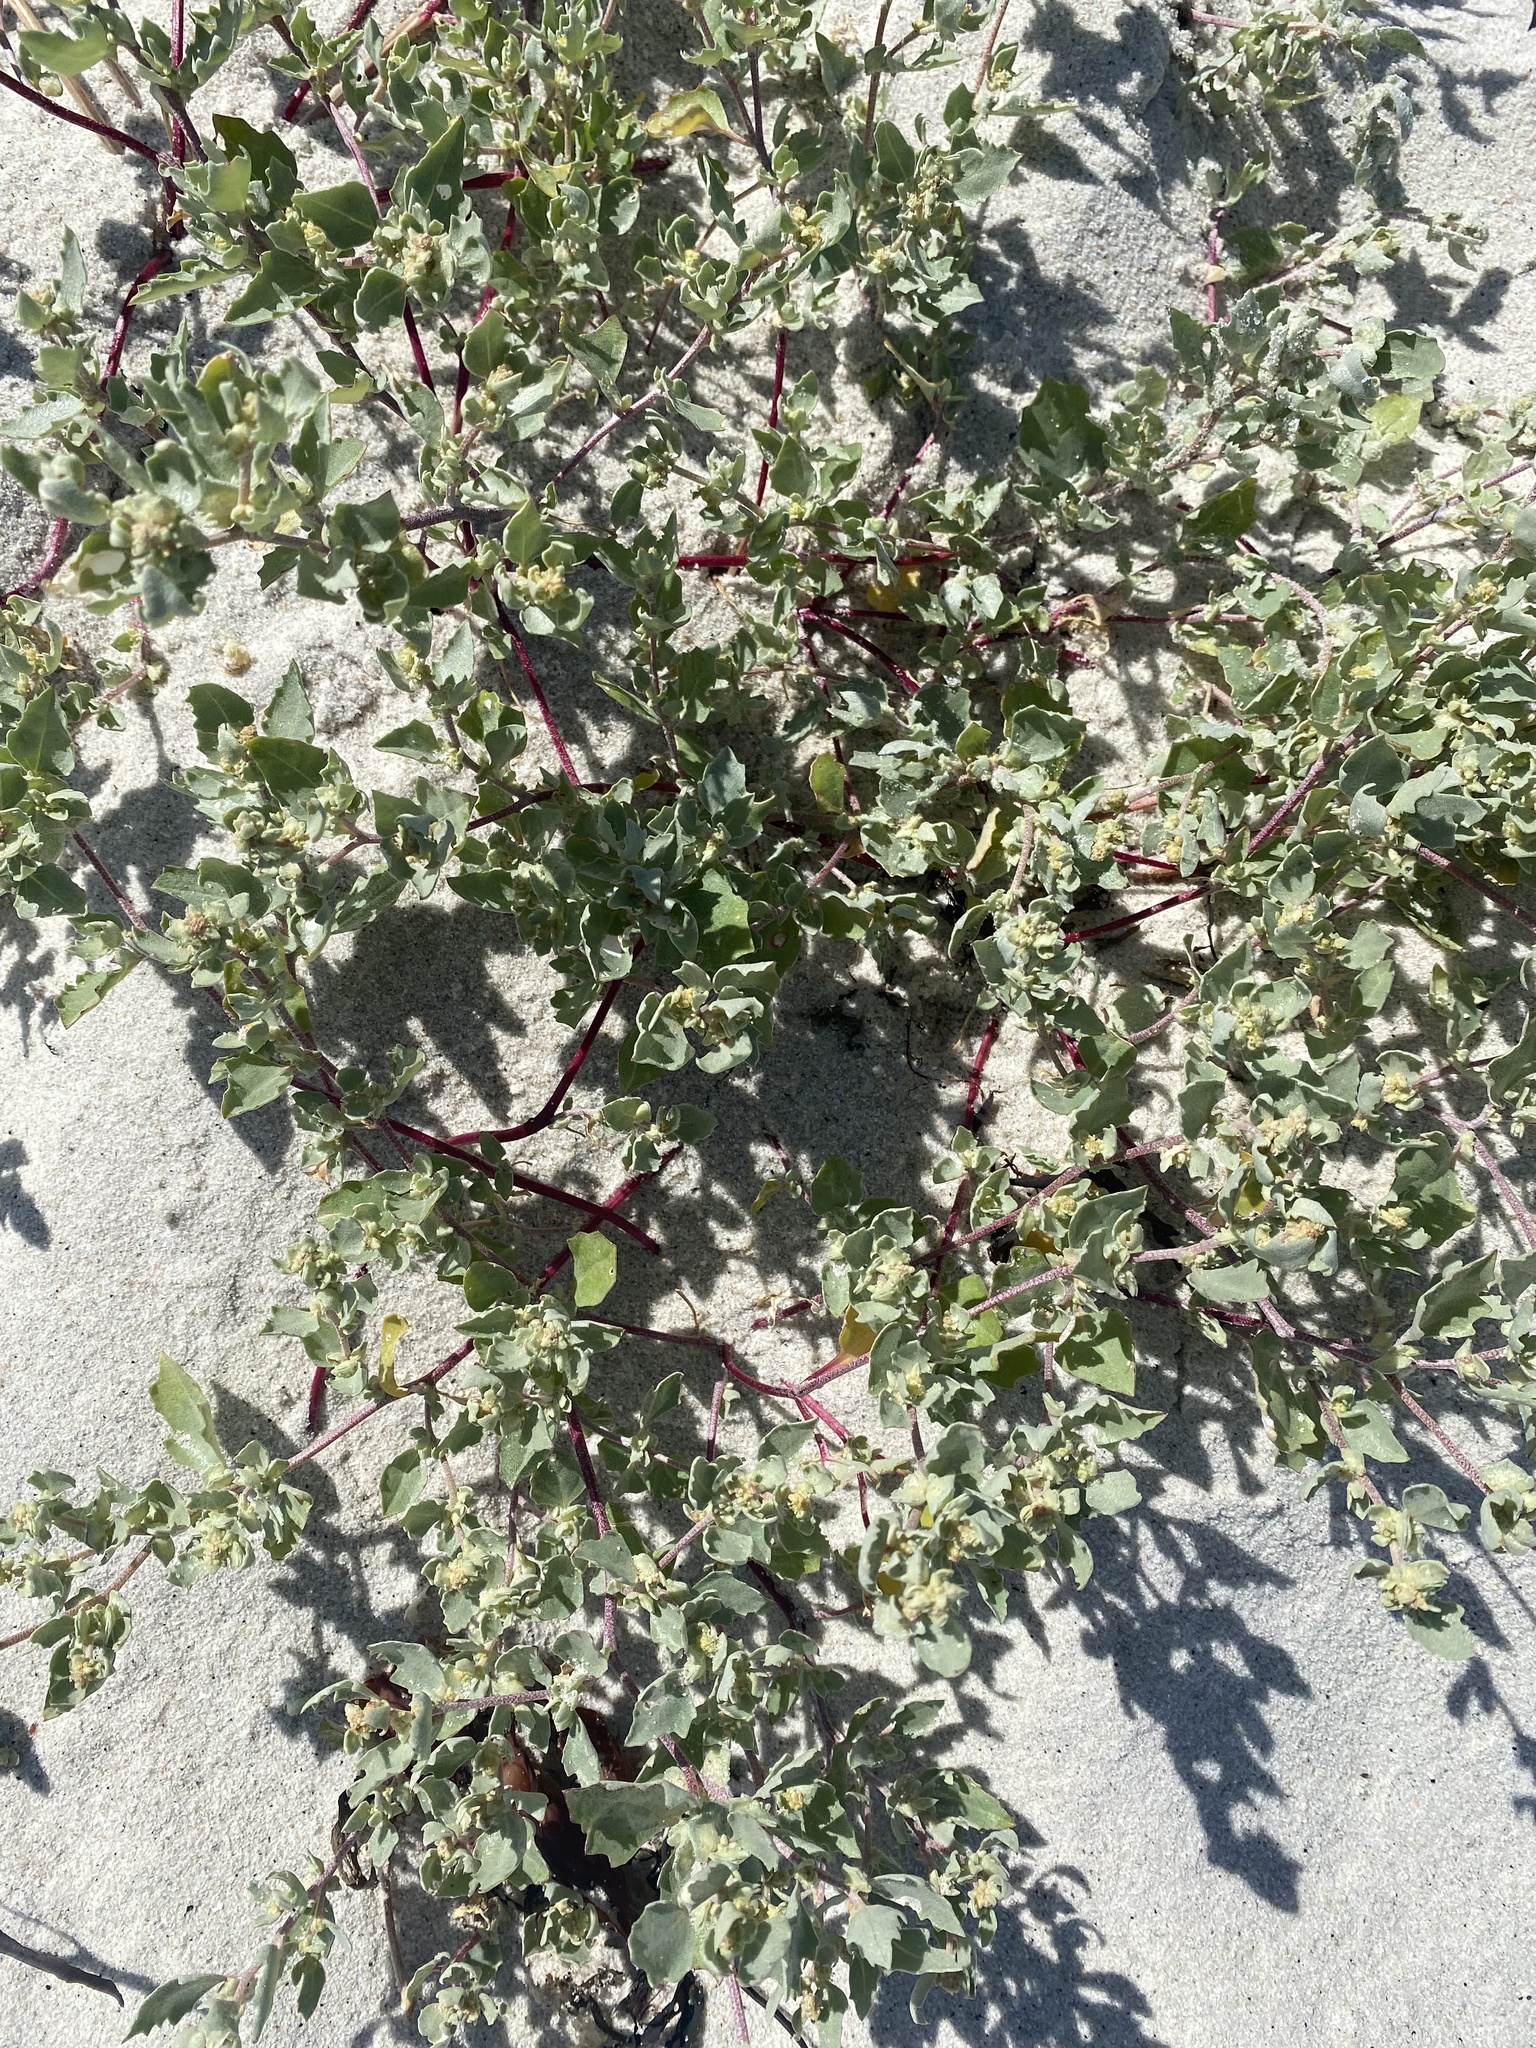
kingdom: Plantae
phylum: Tracheophyta
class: Magnoliopsida
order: Caryophyllales
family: Amaranthaceae
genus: Atriplex
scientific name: Atriplex laciniata
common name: Frosted orache
